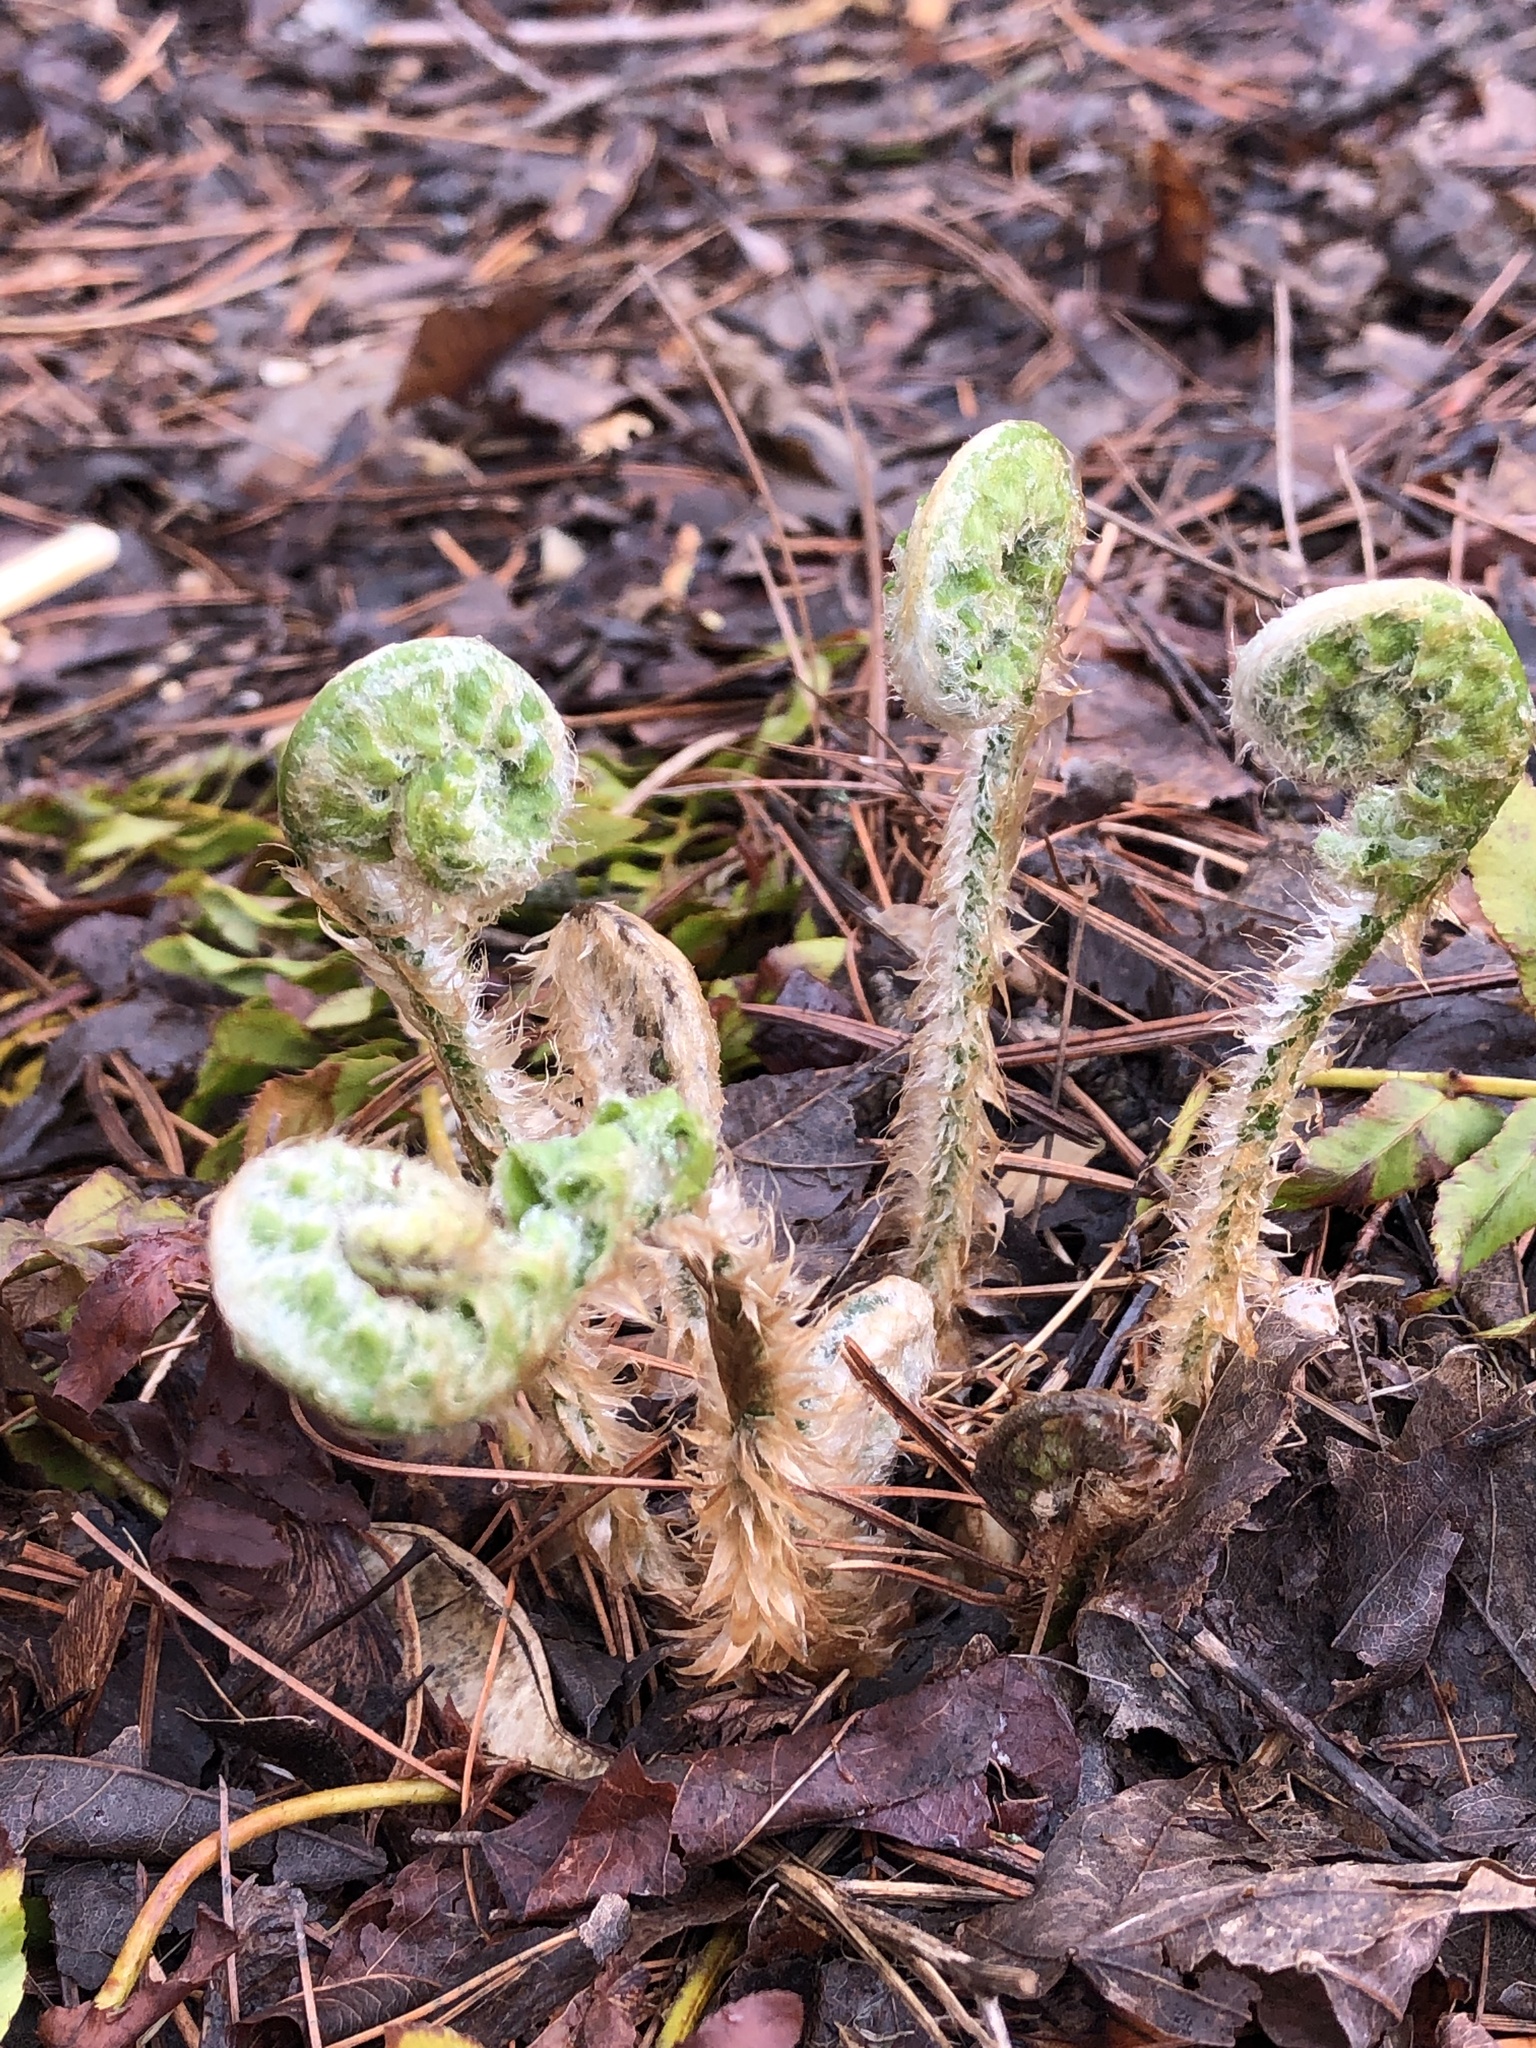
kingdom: Plantae
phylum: Tracheophyta
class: Polypodiopsida
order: Polypodiales
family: Dryopteridaceae
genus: Polystichum
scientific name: Polystichum acrostichoides
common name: Christmas fern
